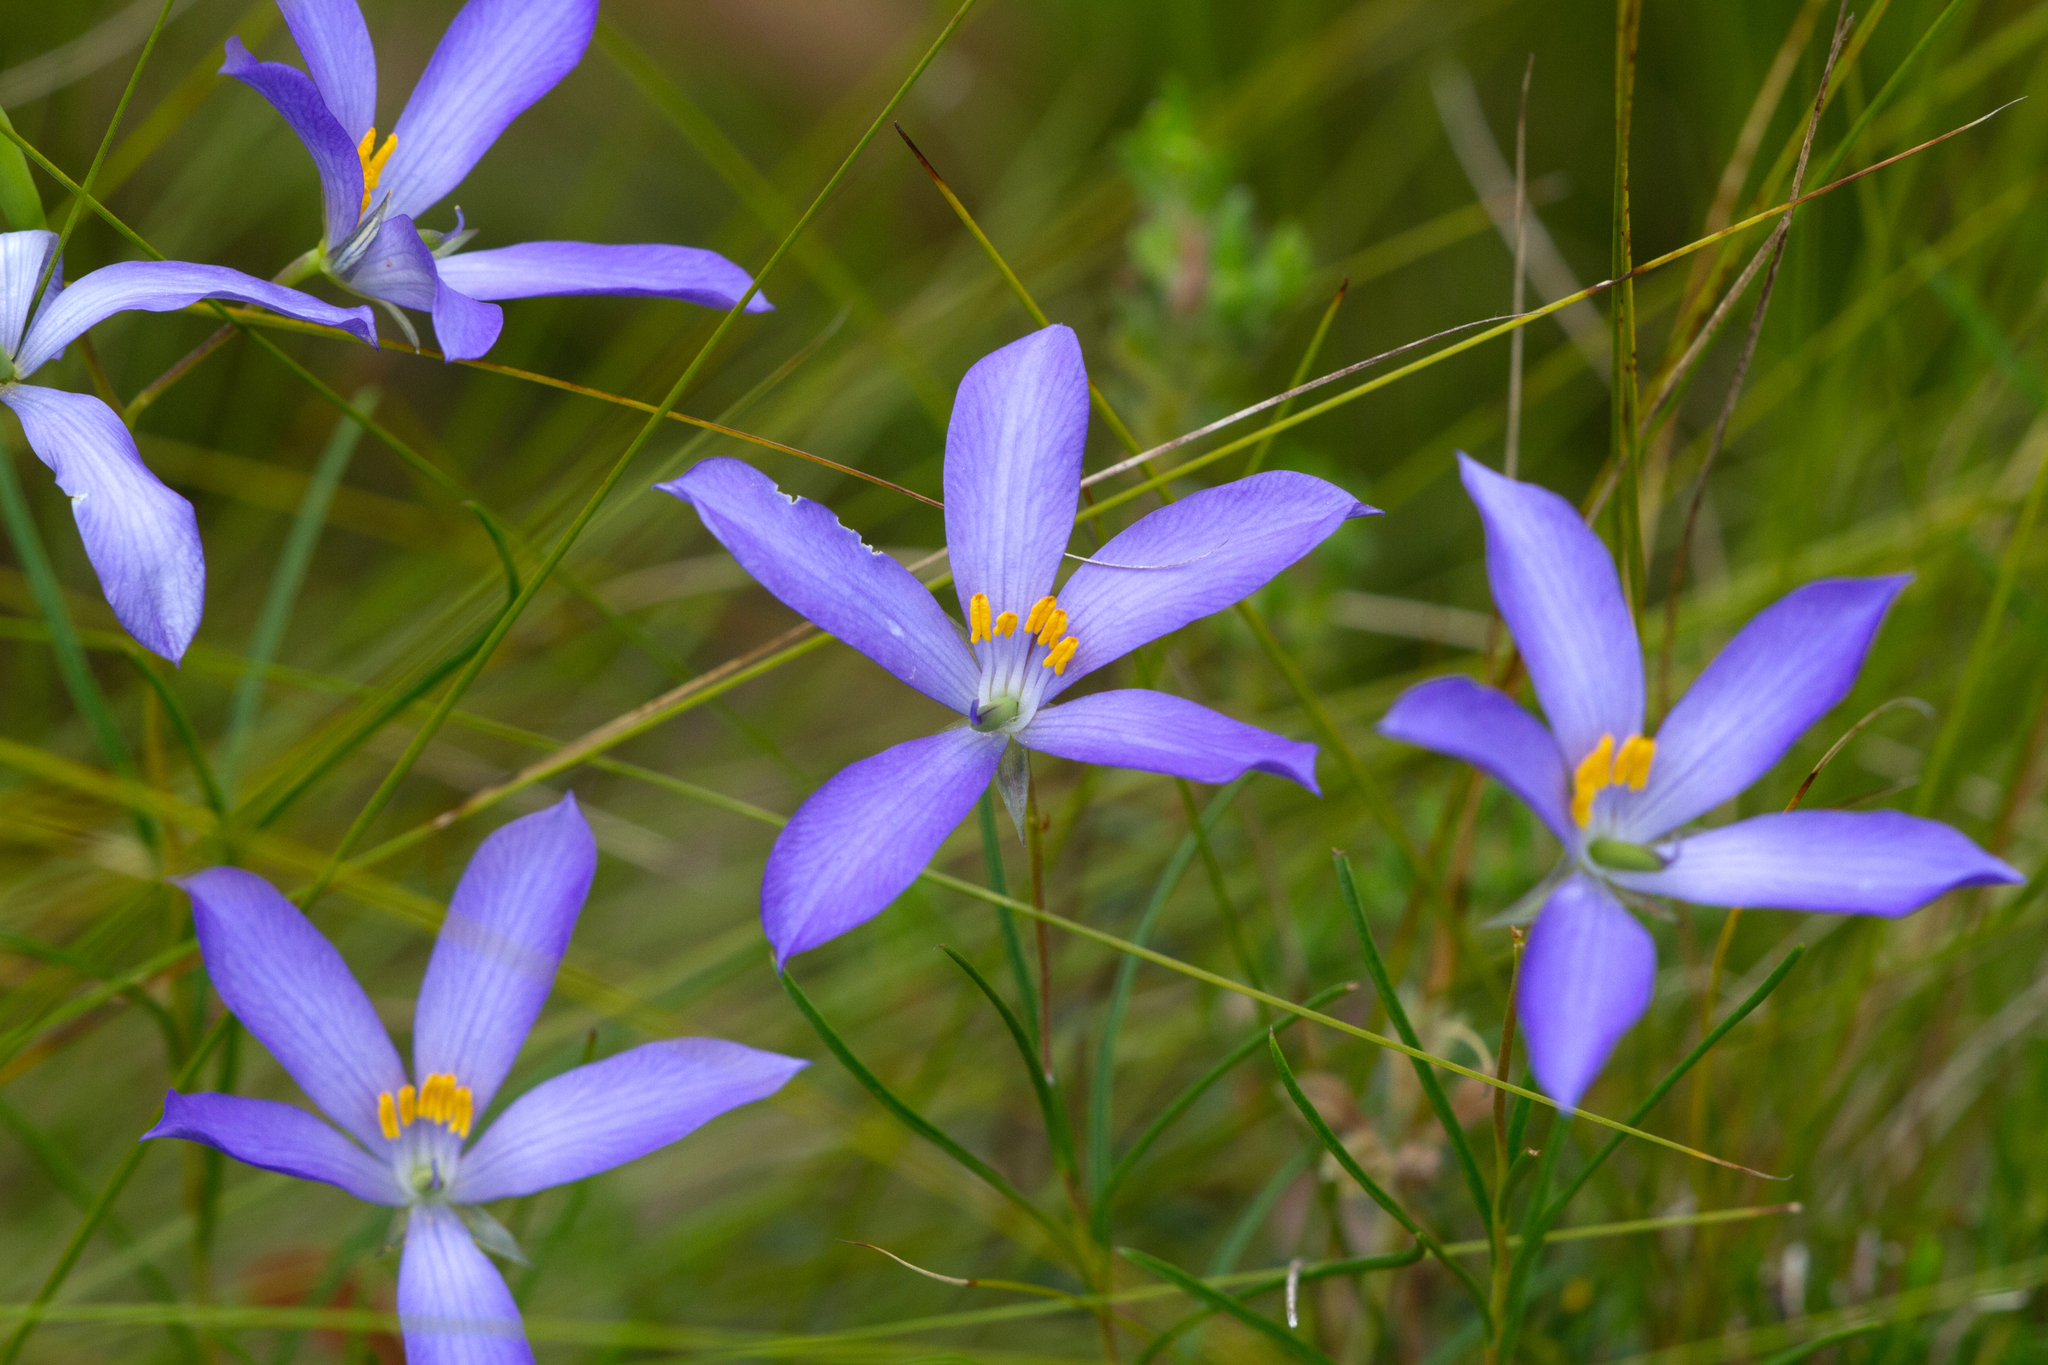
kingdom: Plantae
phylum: Tracheophyta
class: Magnoliopsida
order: Apiales
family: Pittosporaceae
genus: Cheiranthera
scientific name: Cheiranthera alternifolia
